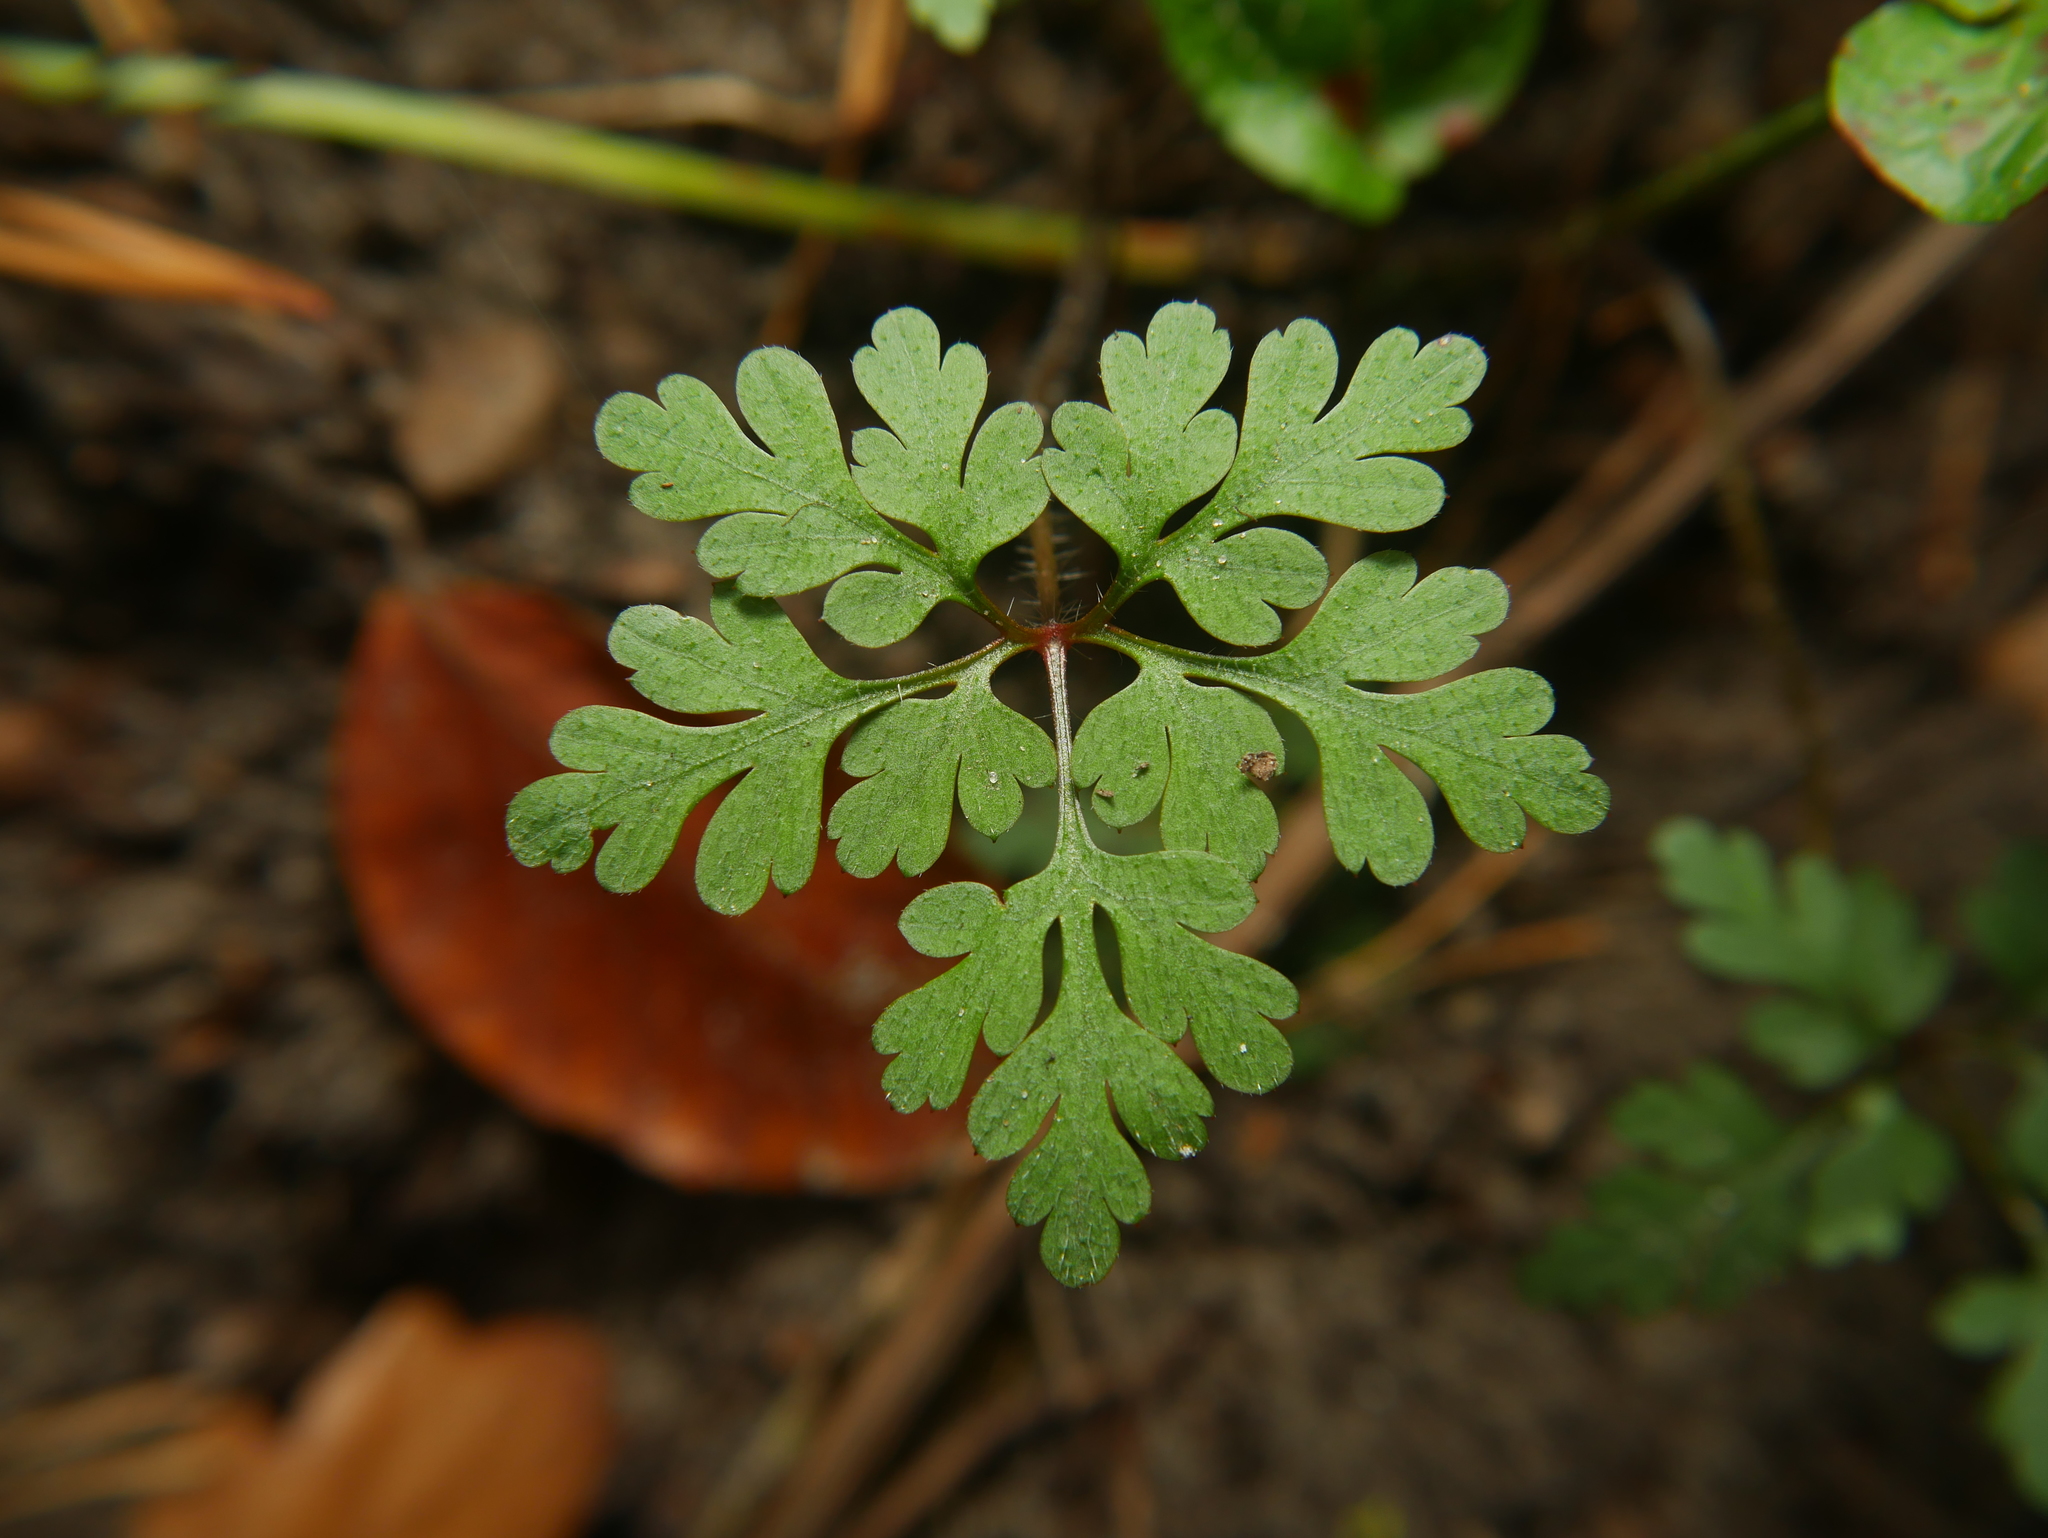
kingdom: Plantae
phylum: Tracheophyta
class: Magnoliopsida
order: Geraniales
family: Geraniaceae
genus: Geranium
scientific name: Geranium robertianum
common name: Herb-robert
